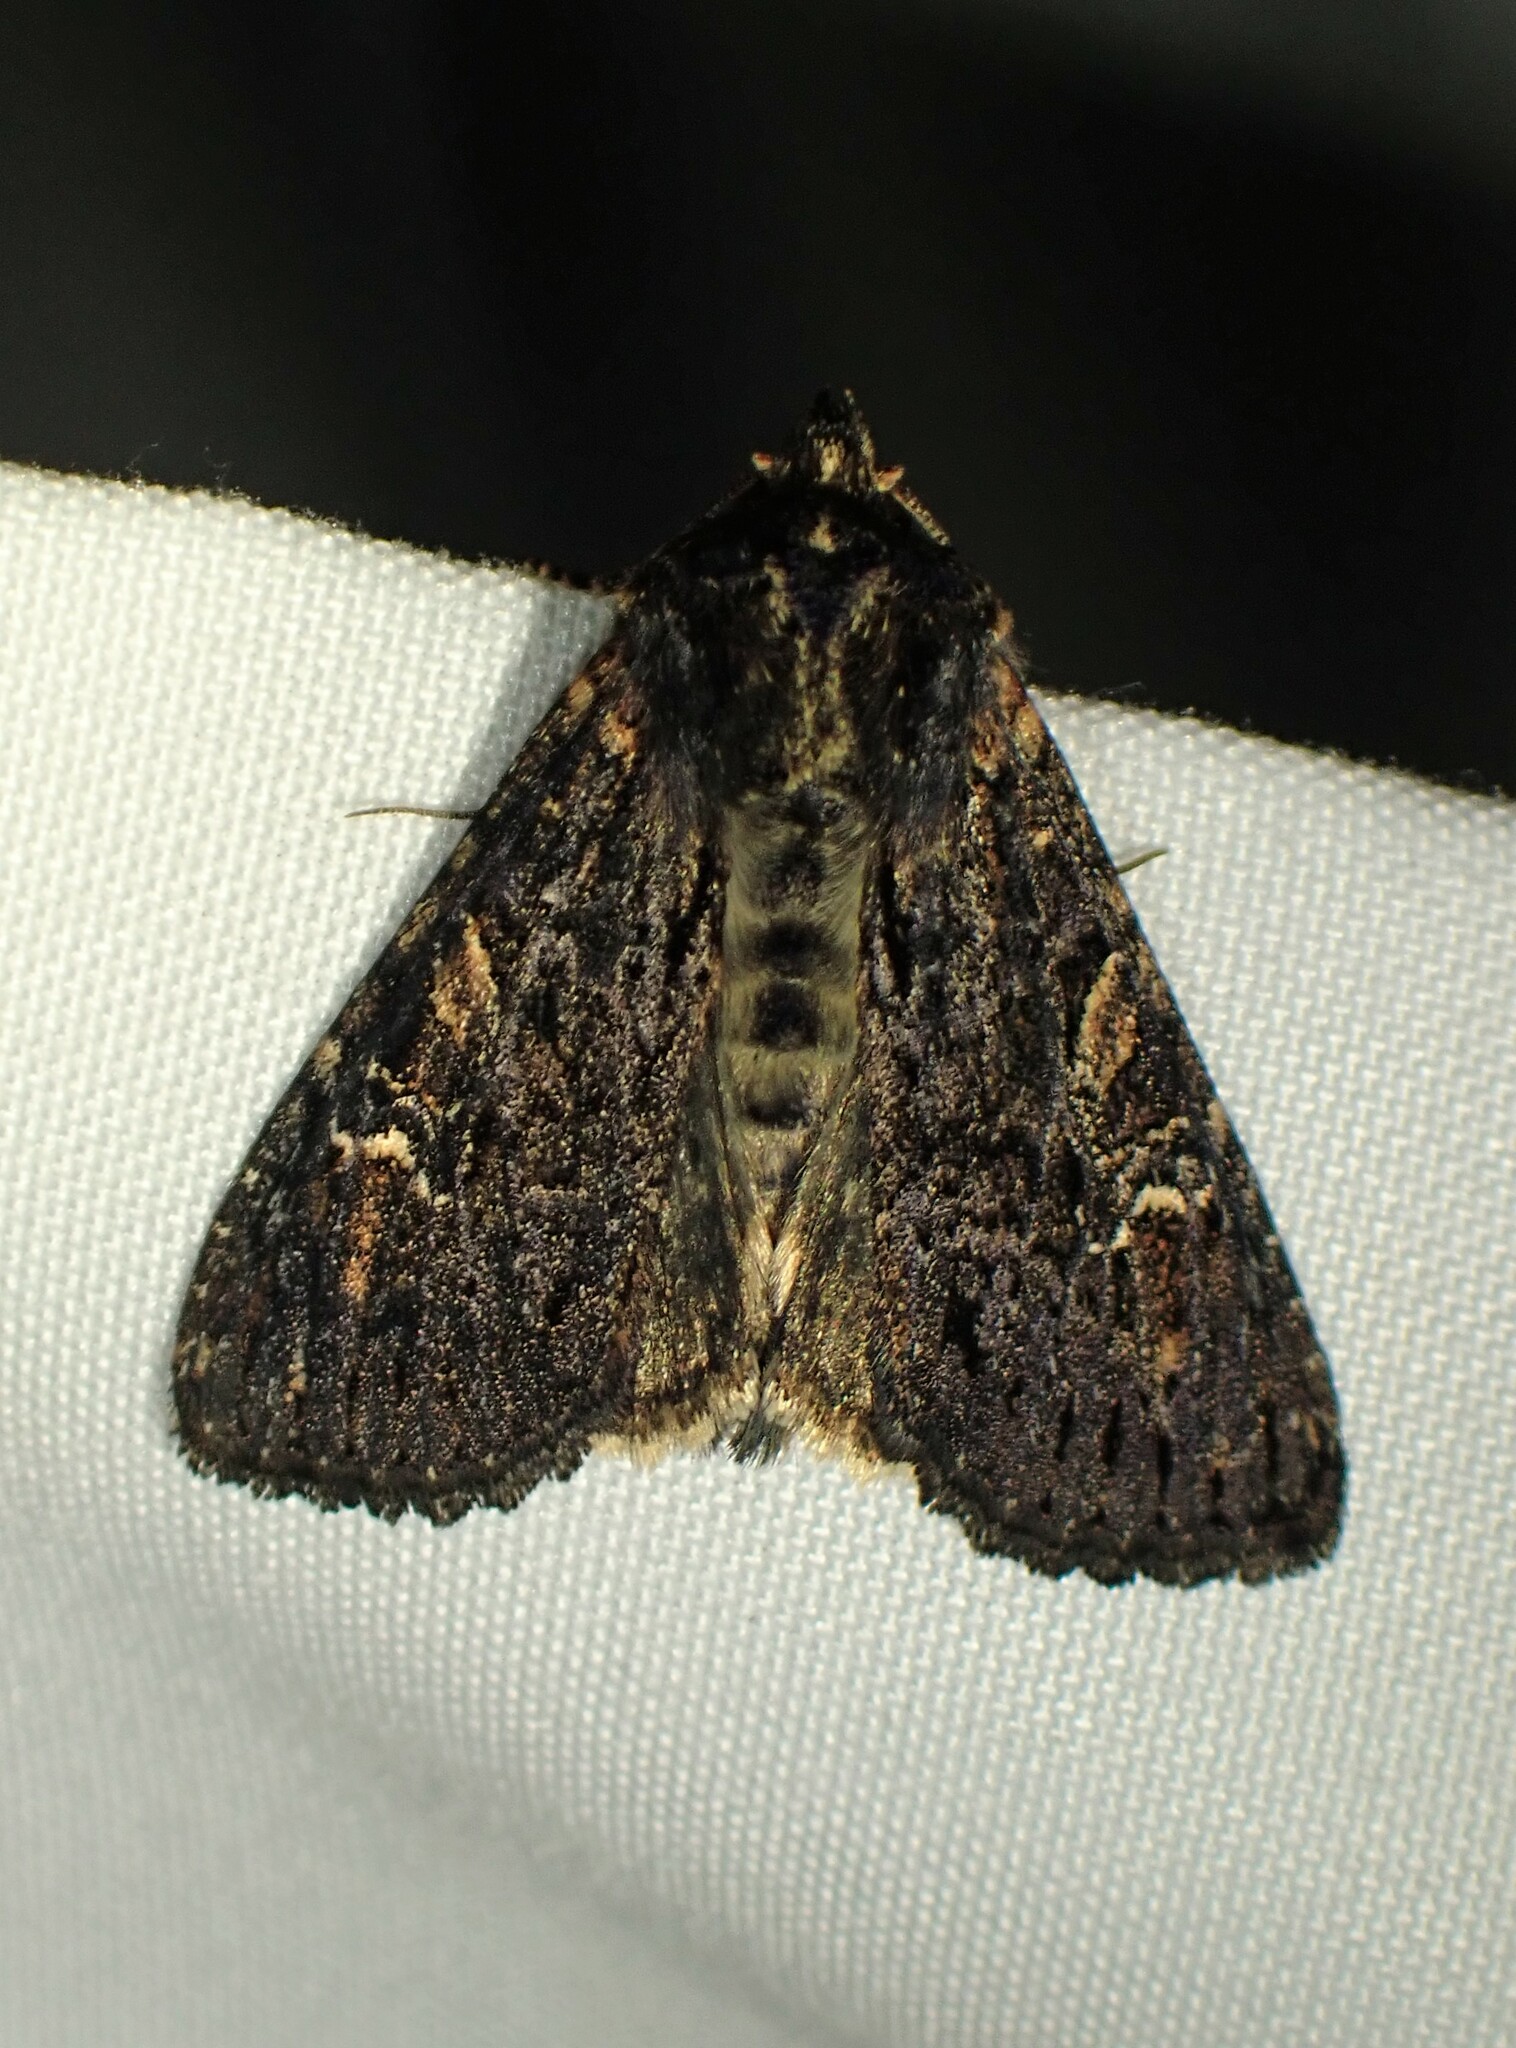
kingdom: Animalia
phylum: Arthropoda
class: Insecta
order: Lepidoptera
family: Noctuidae
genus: Apamea
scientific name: Apamea plutonia
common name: Dusky apamea moth
